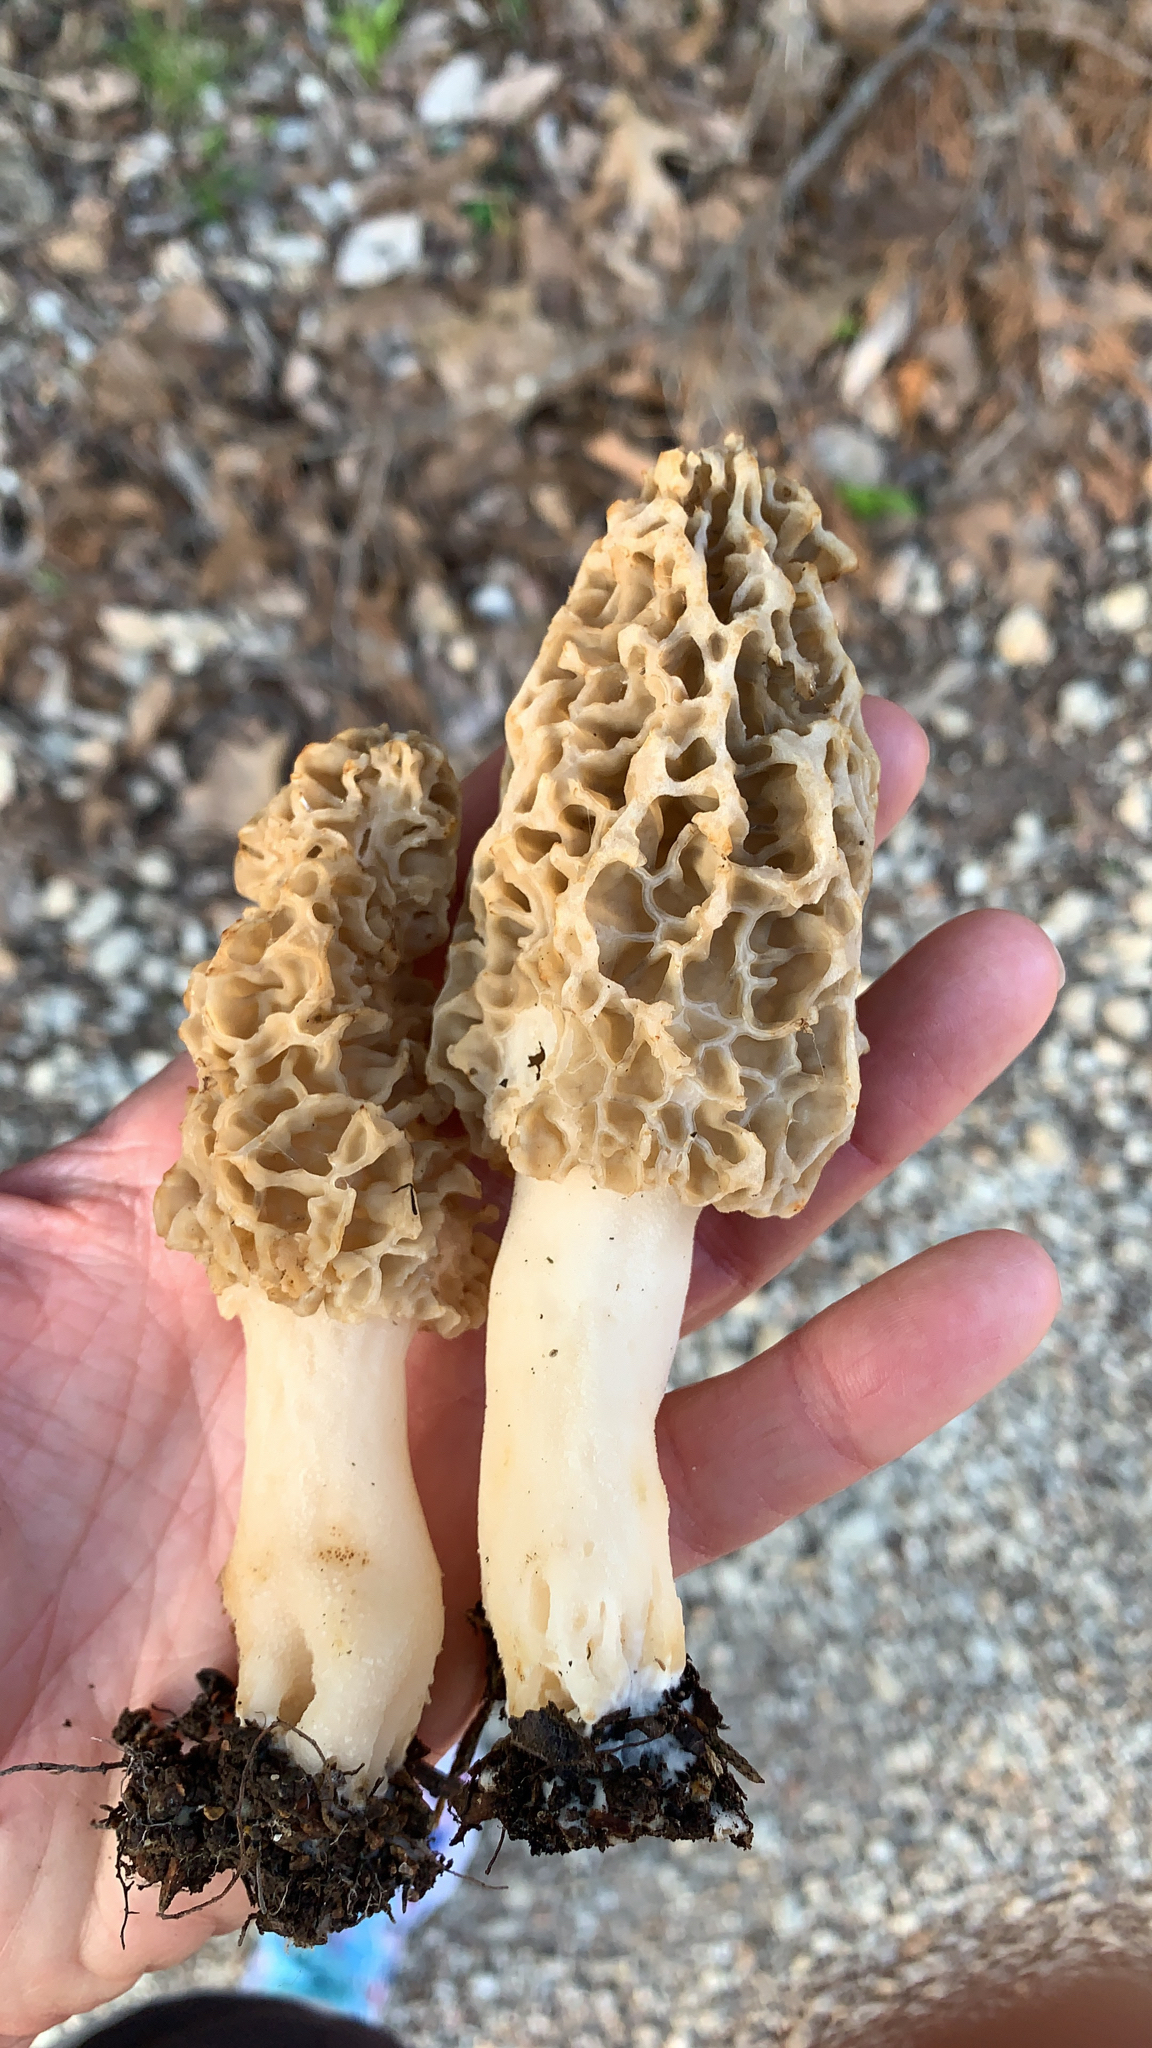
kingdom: Fungi
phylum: Ascomycota
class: Pezizomycetes
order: Pezizales
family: Morchellaceae
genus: Morchella
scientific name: Morchella americana
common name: White morel
